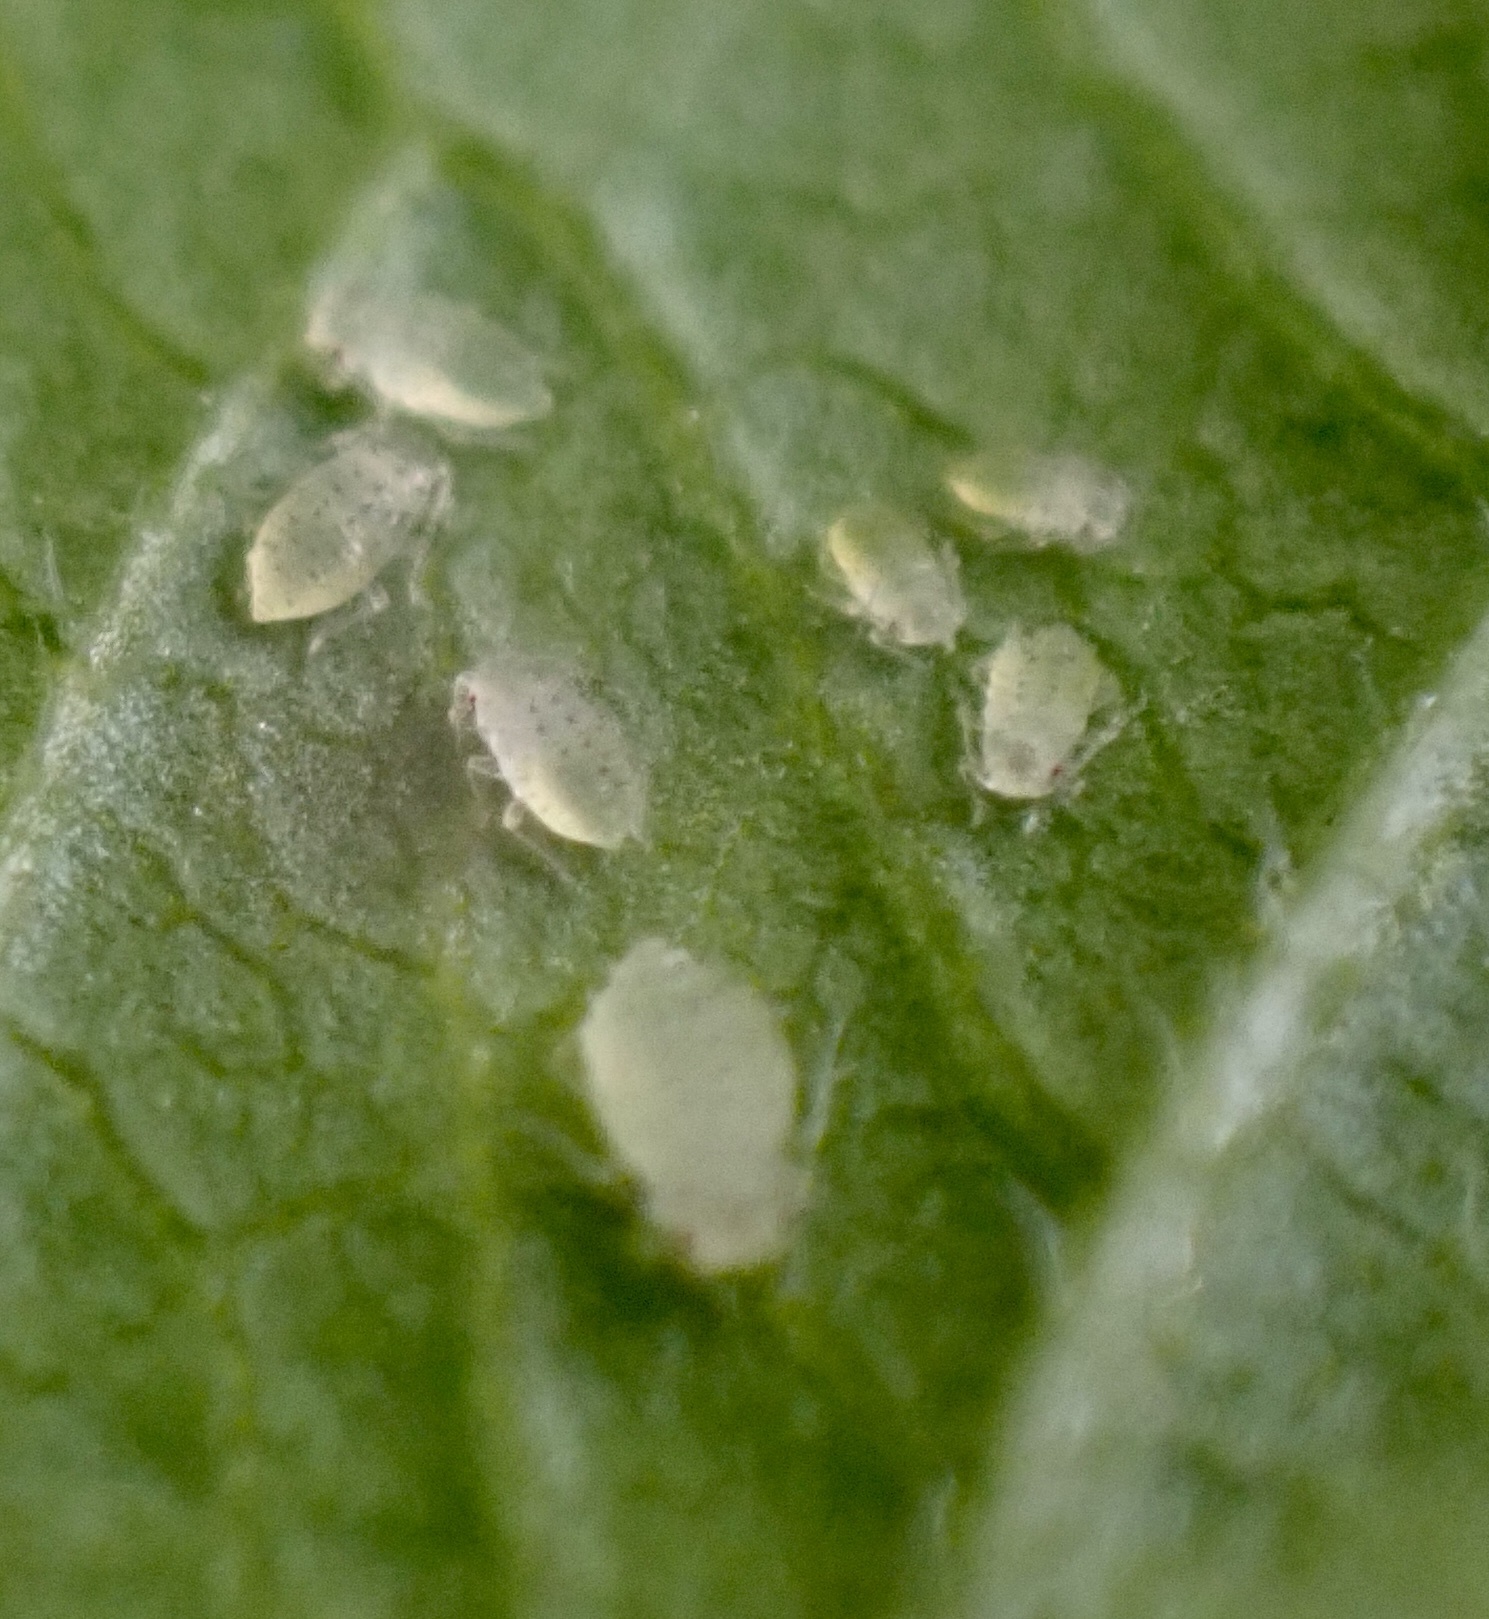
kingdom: Animalia
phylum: Arthropoda
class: Insecta
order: Hemiptera
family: Aphididae
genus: Sarucallis
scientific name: Sarucallis kahawaluokalani
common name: Crapemyrtle aphid
